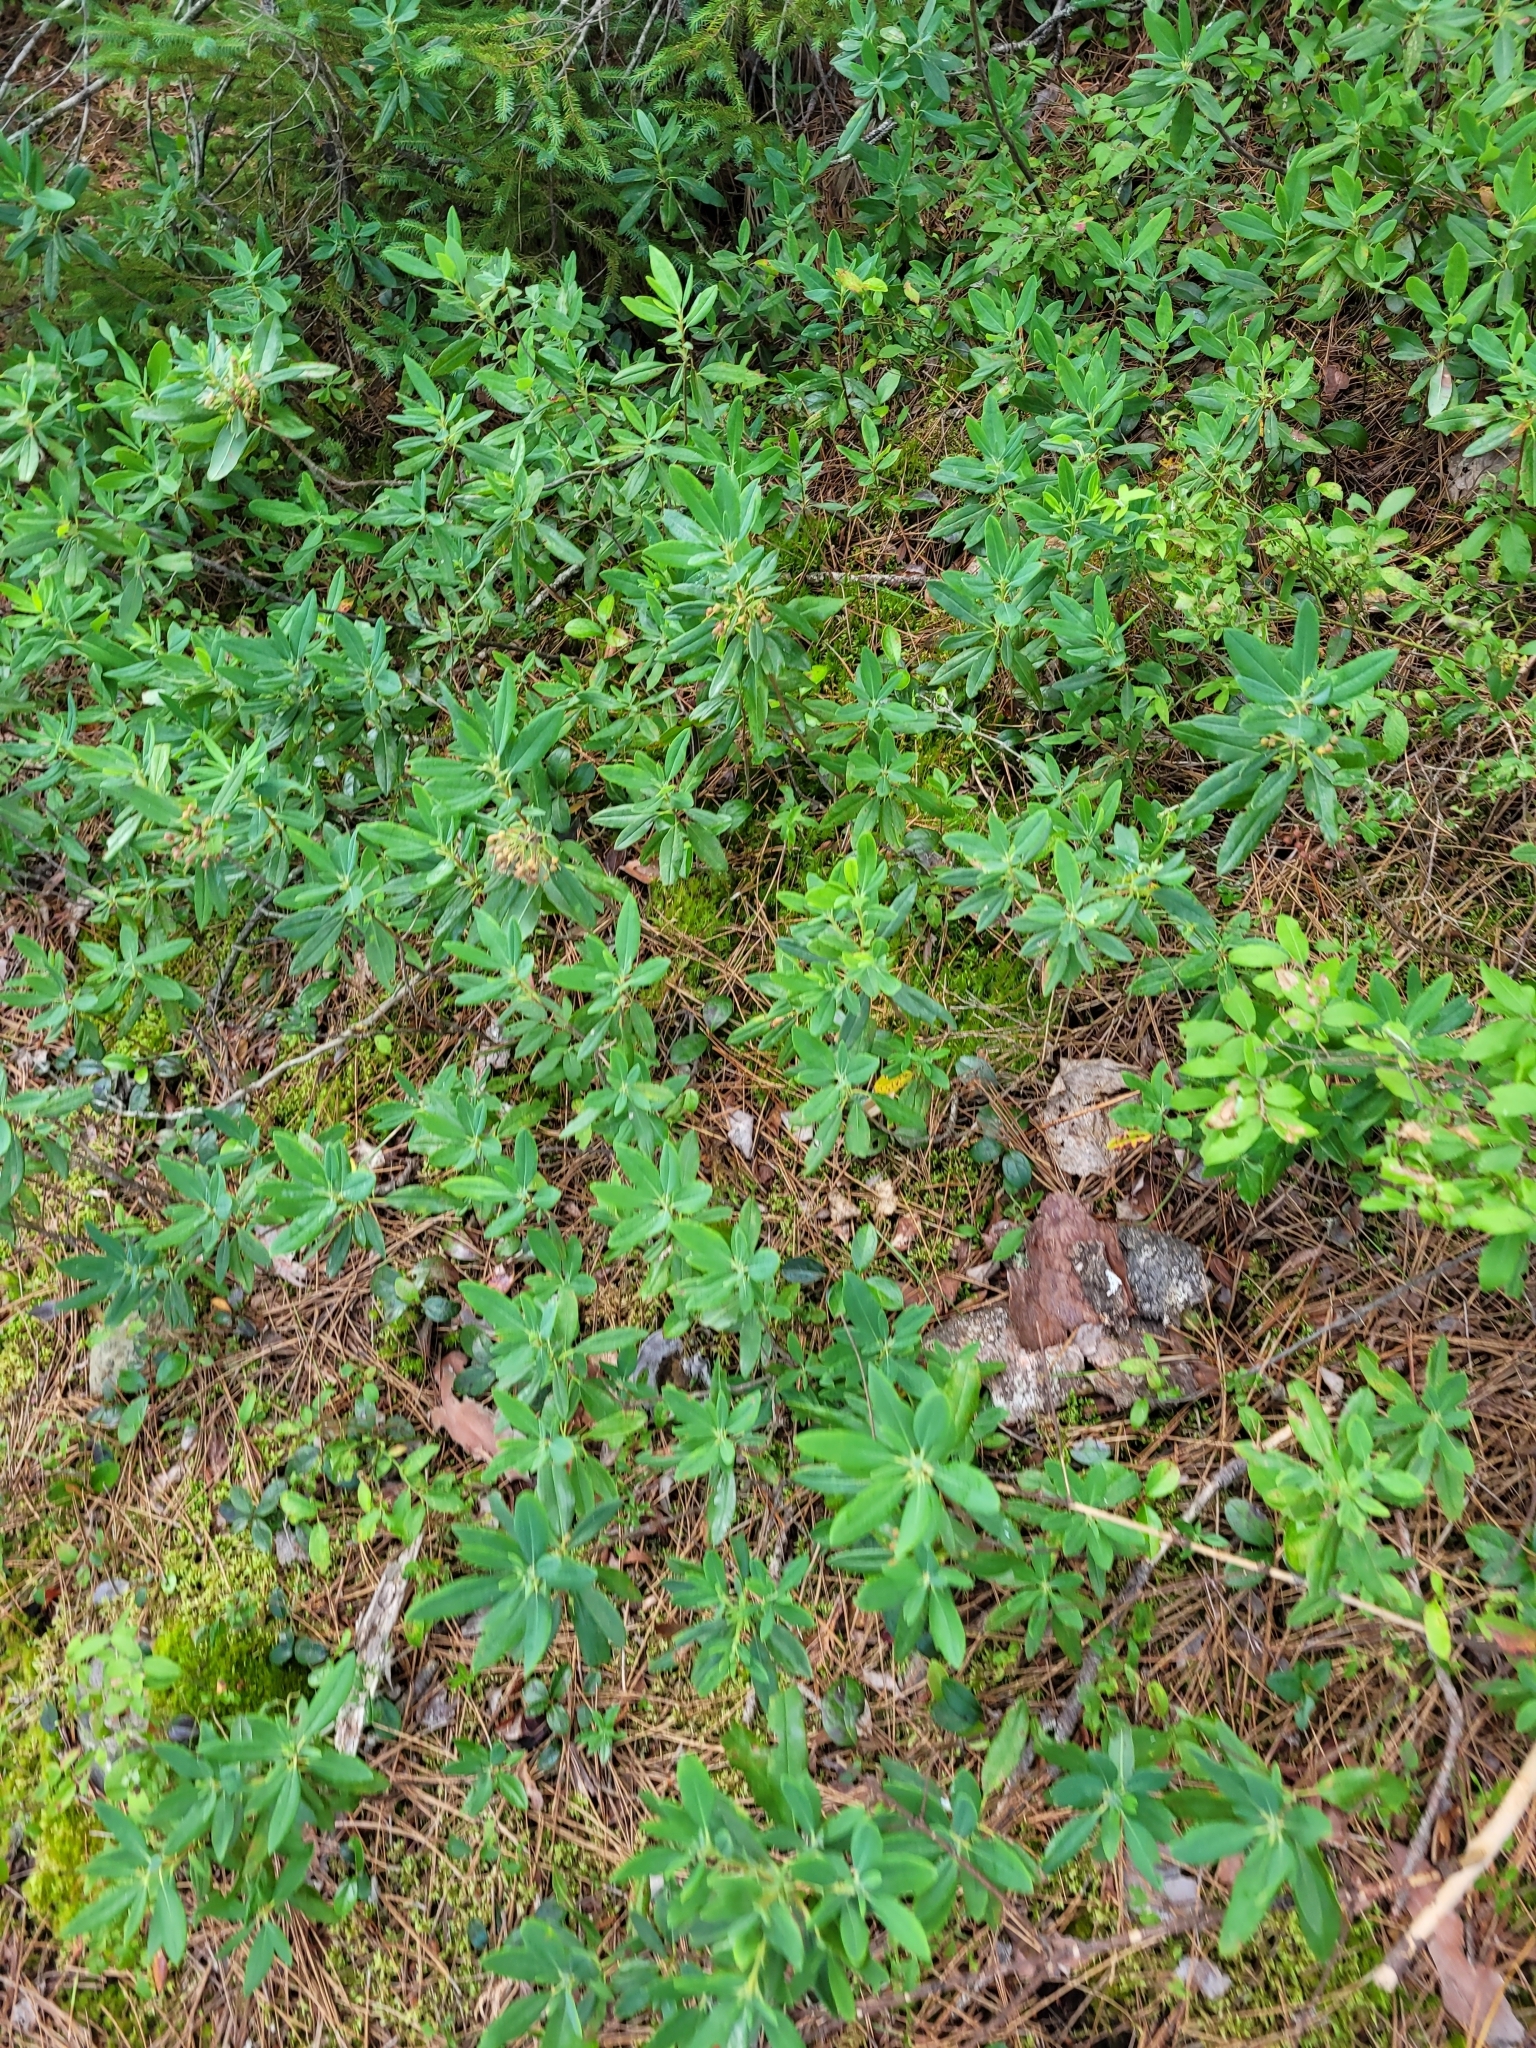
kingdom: Plantae
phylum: Tracheophyta
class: Magnoliopsida
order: Ericales
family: Ericaceae
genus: Kalmia
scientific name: Kalmia angustifolia
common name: Sheep-laurel
